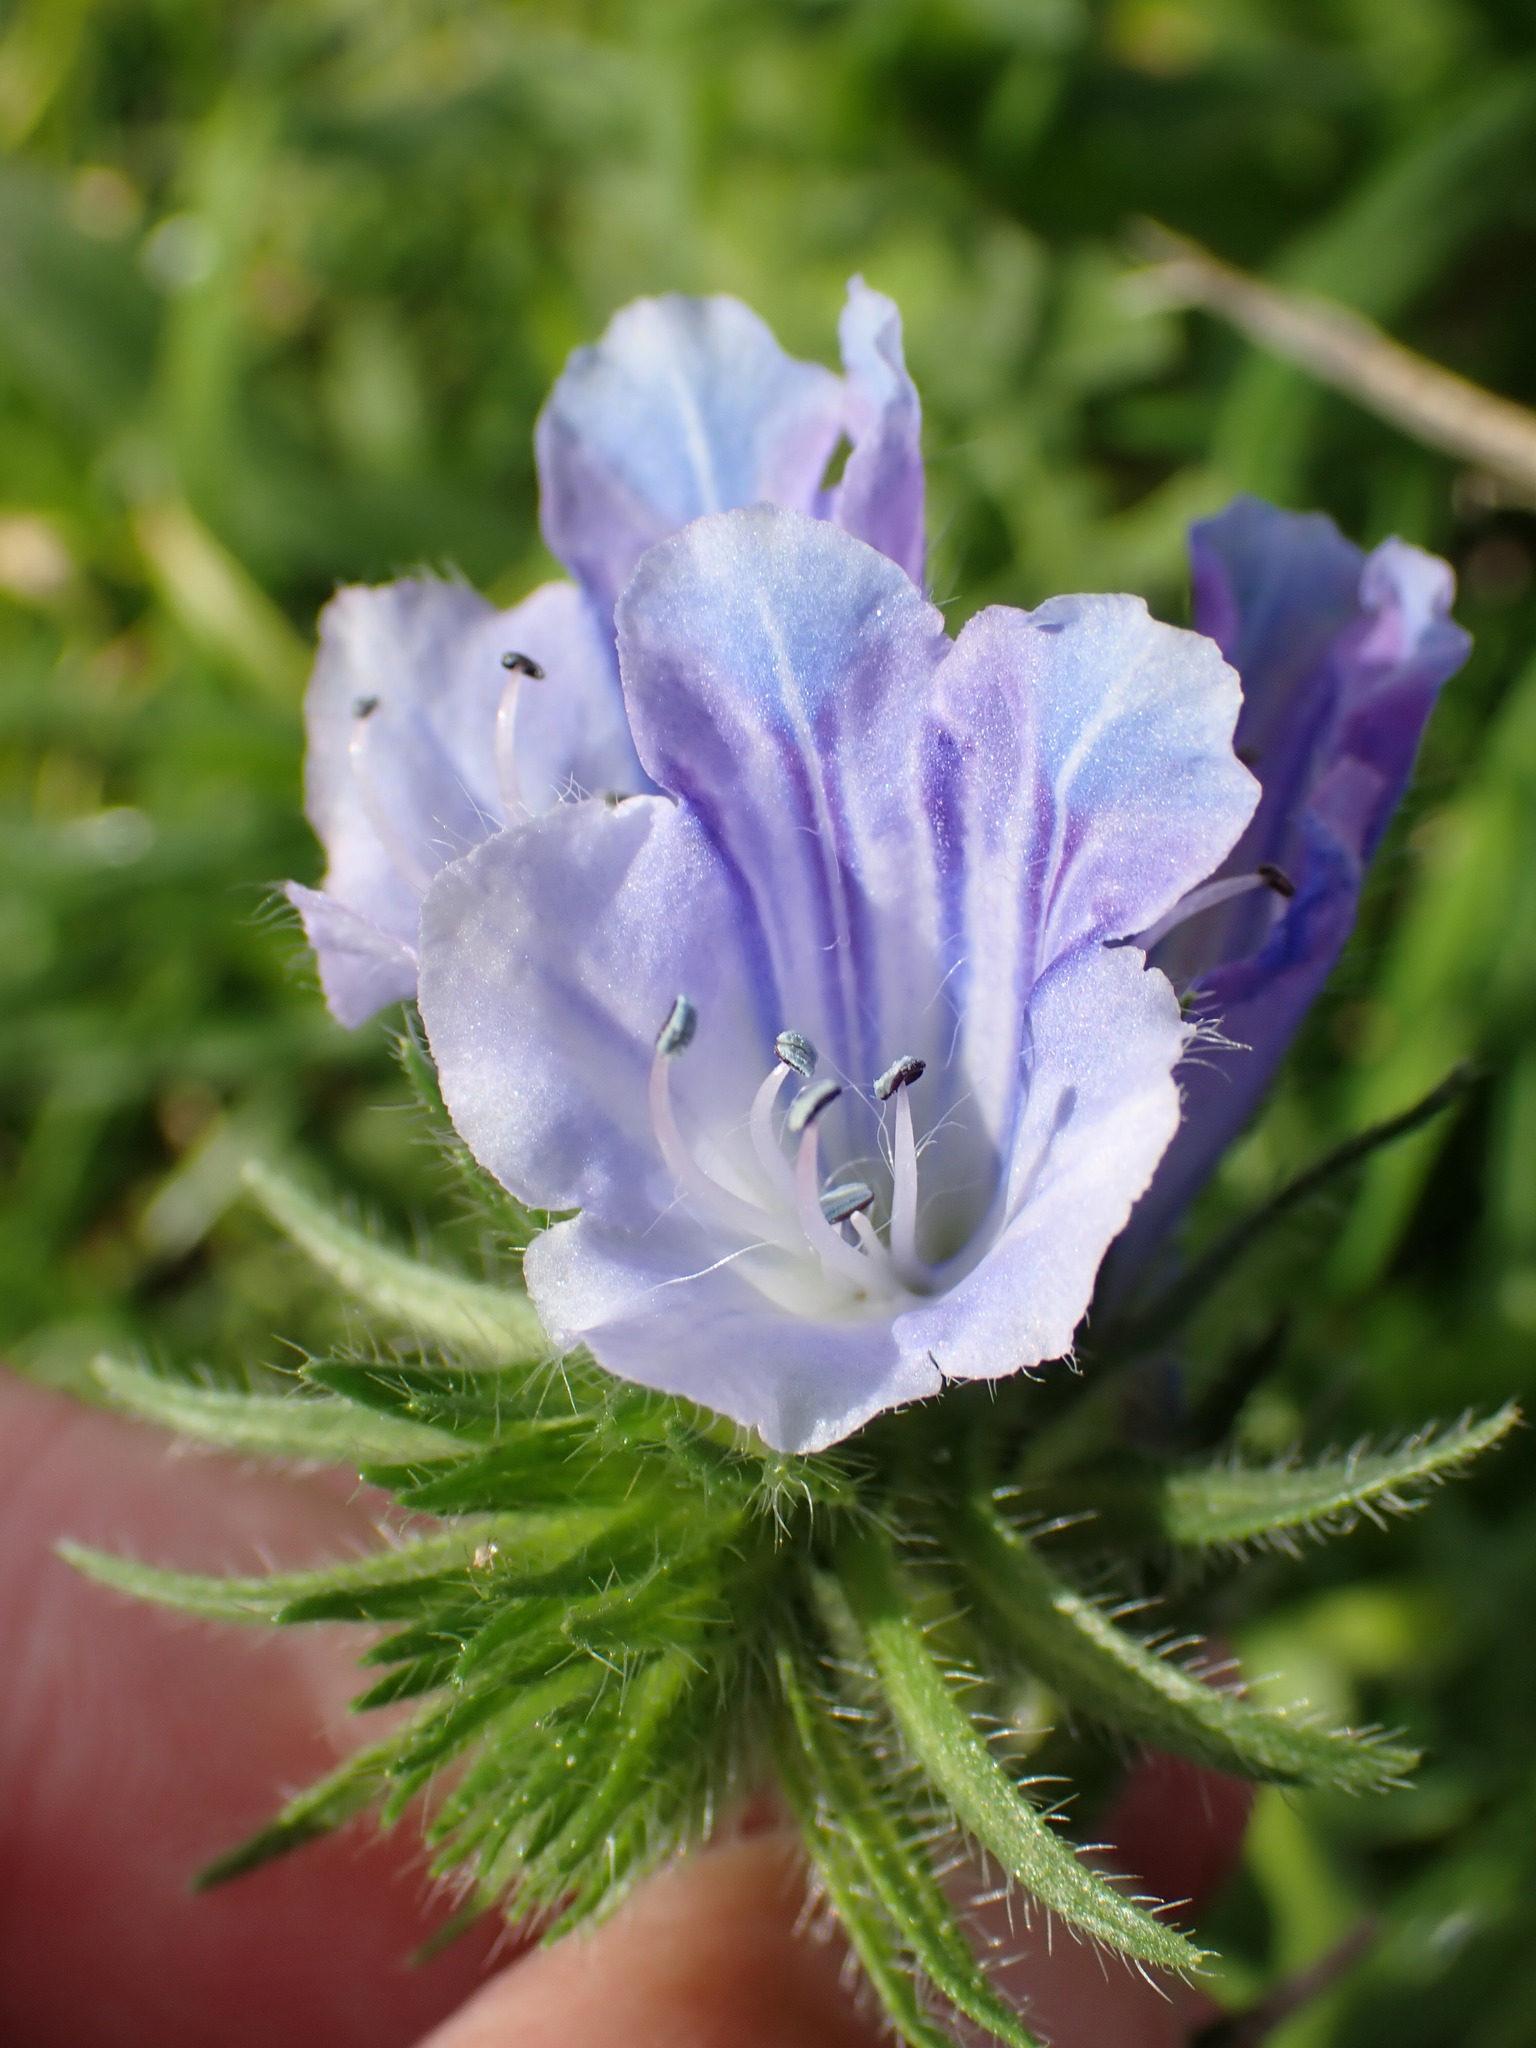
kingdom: Plantae
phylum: Tracheophyta
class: Magnoliopsida
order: Boraginales
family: Boraginaceae
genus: Echium
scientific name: Echium plantagineum
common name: Purple viper's-bugloss
